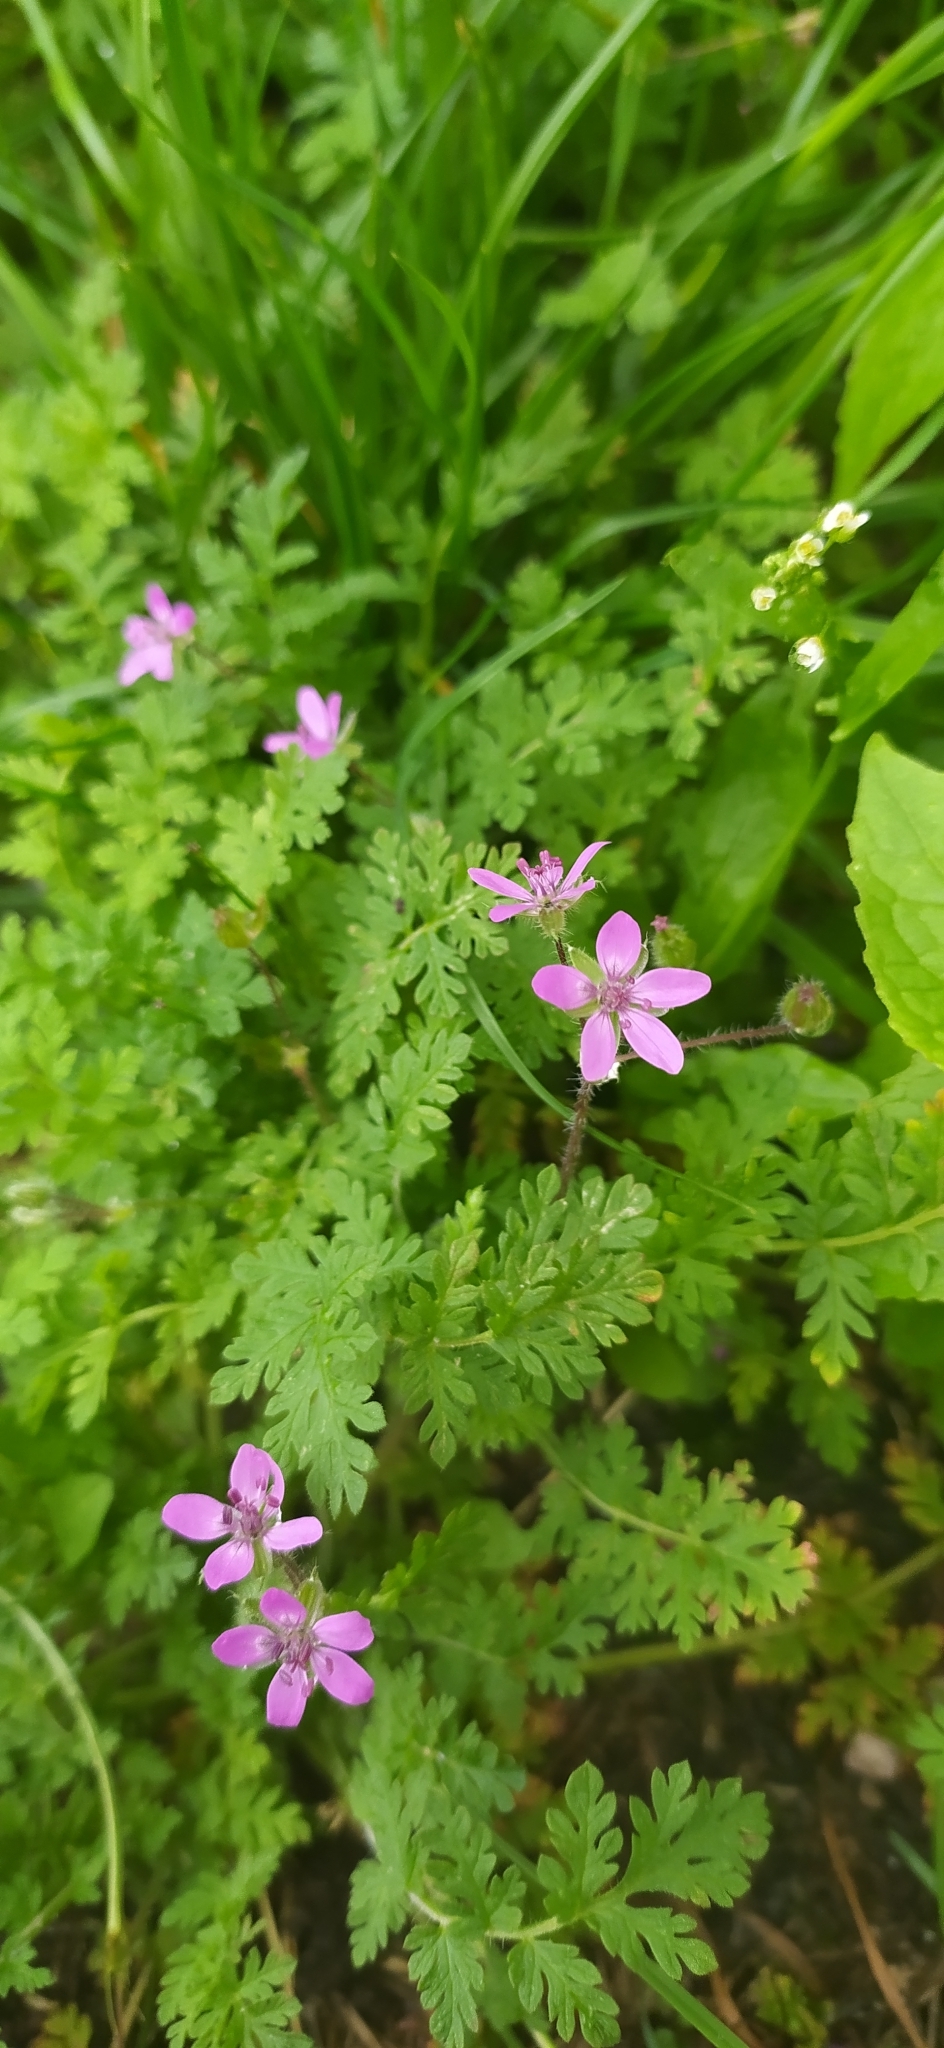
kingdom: Plantae
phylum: Tracheophyta
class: Magnoliopsida
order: Geraniales
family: Geraniaceae
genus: Erodium
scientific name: Erodium cicutarium
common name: Common stork's-bill
